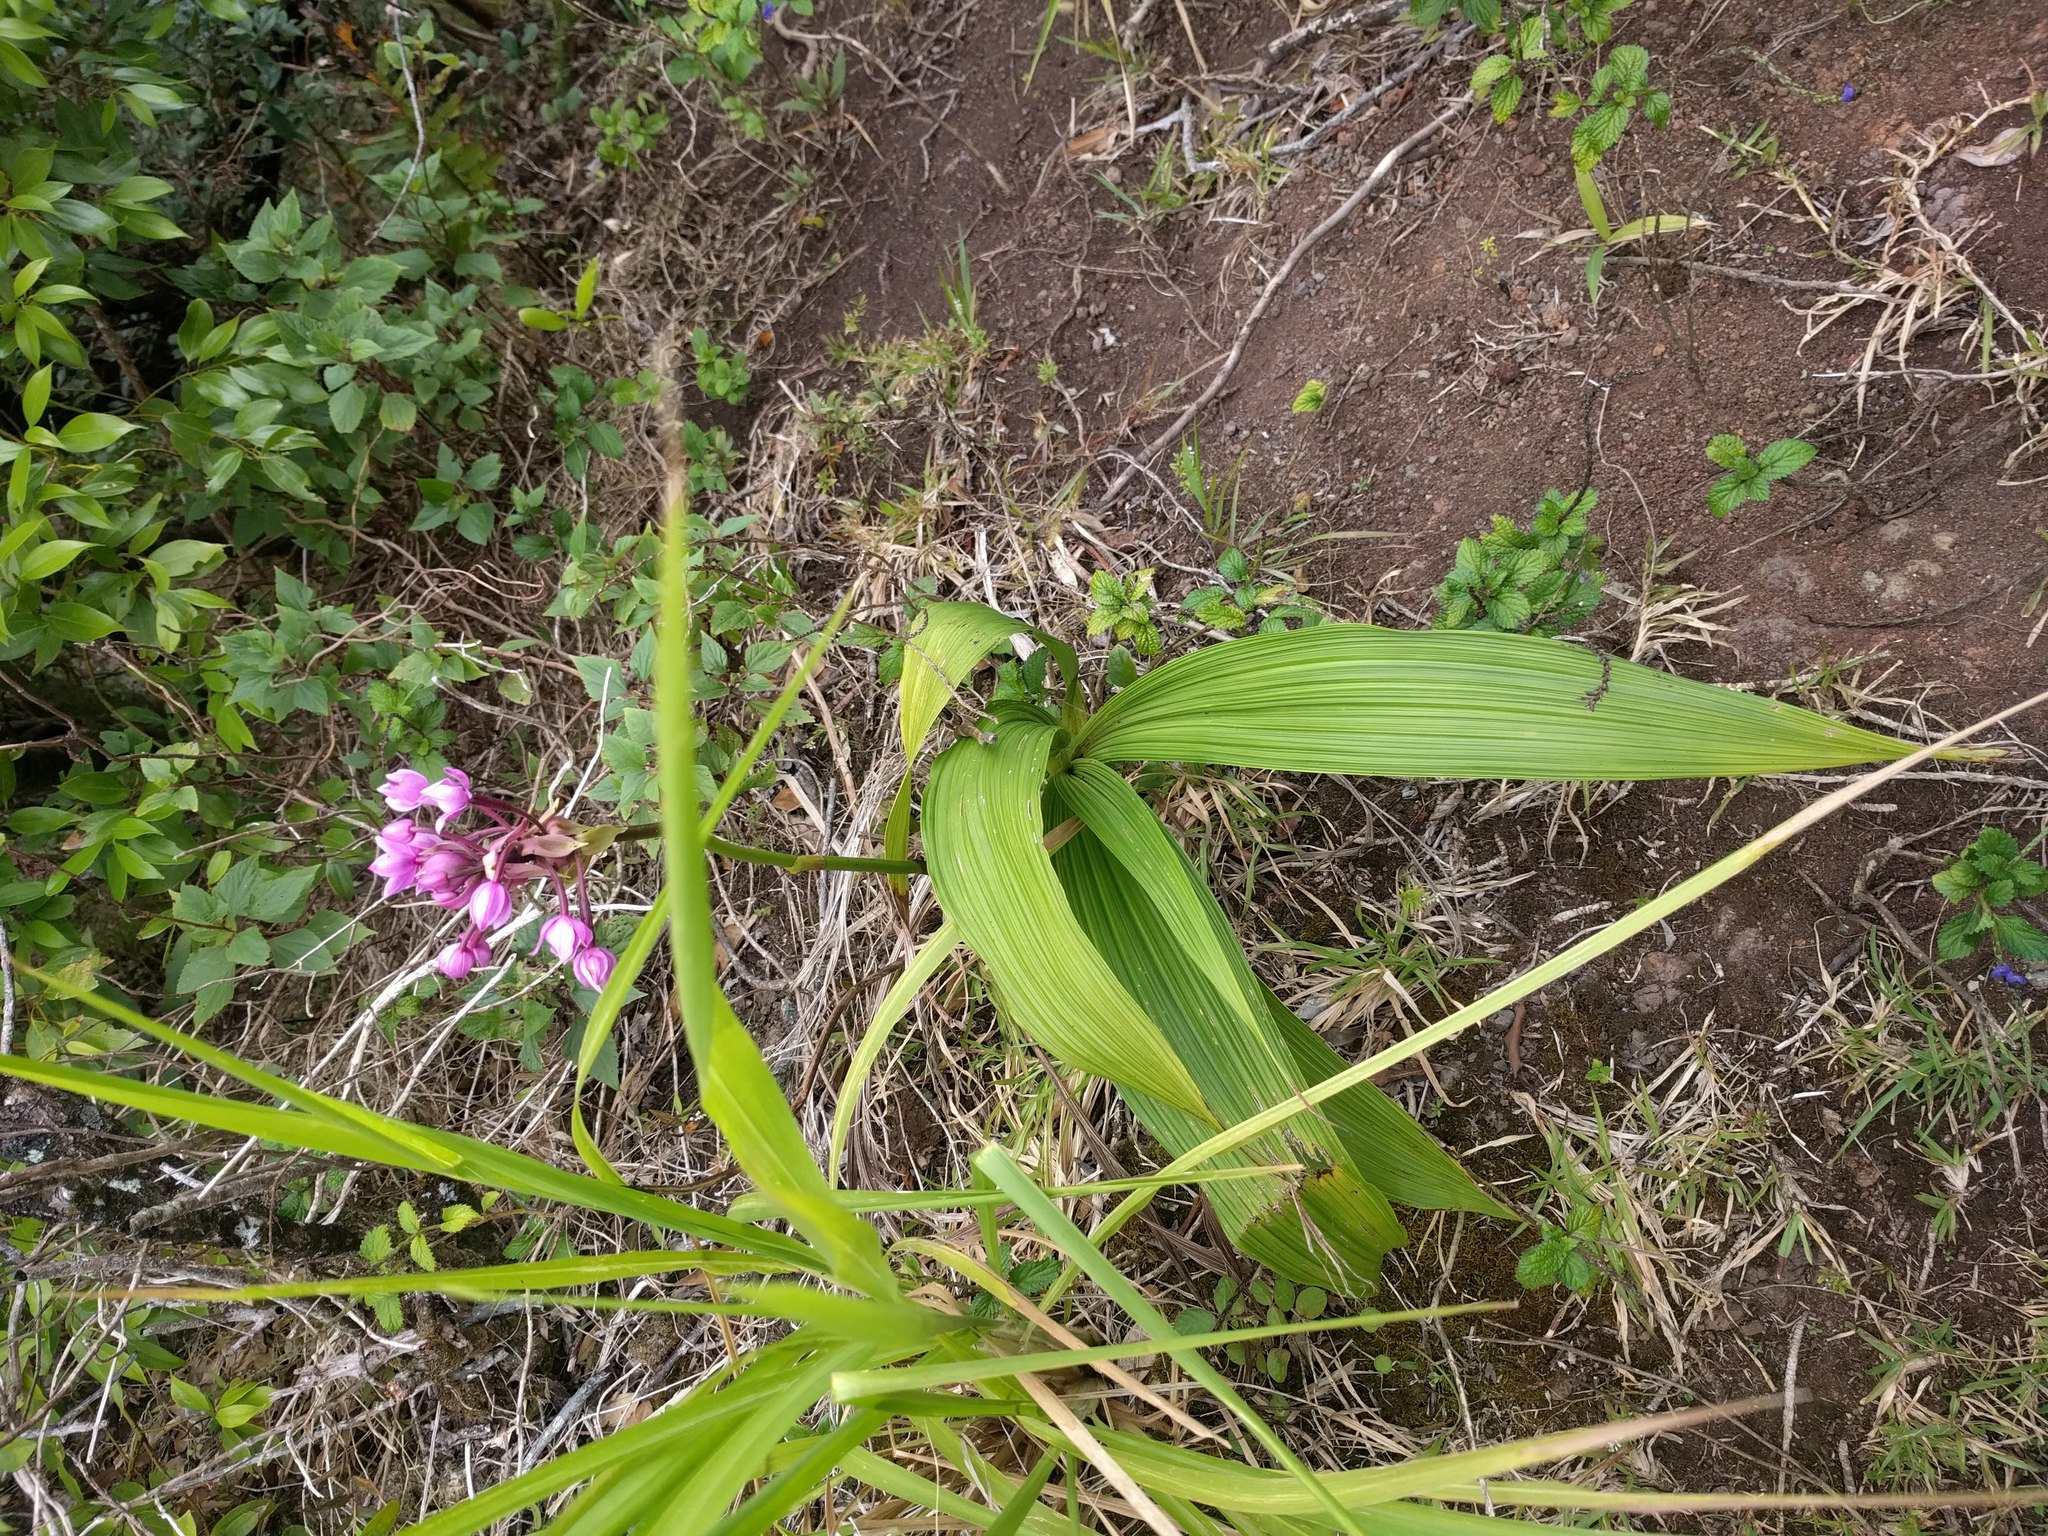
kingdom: Plantae
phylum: Tracheophyta
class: Liliopsida
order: Asparagales
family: Orchidaceae
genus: Spathoglottis
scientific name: Spathoglottis plicata
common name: Philippine ground orchid
